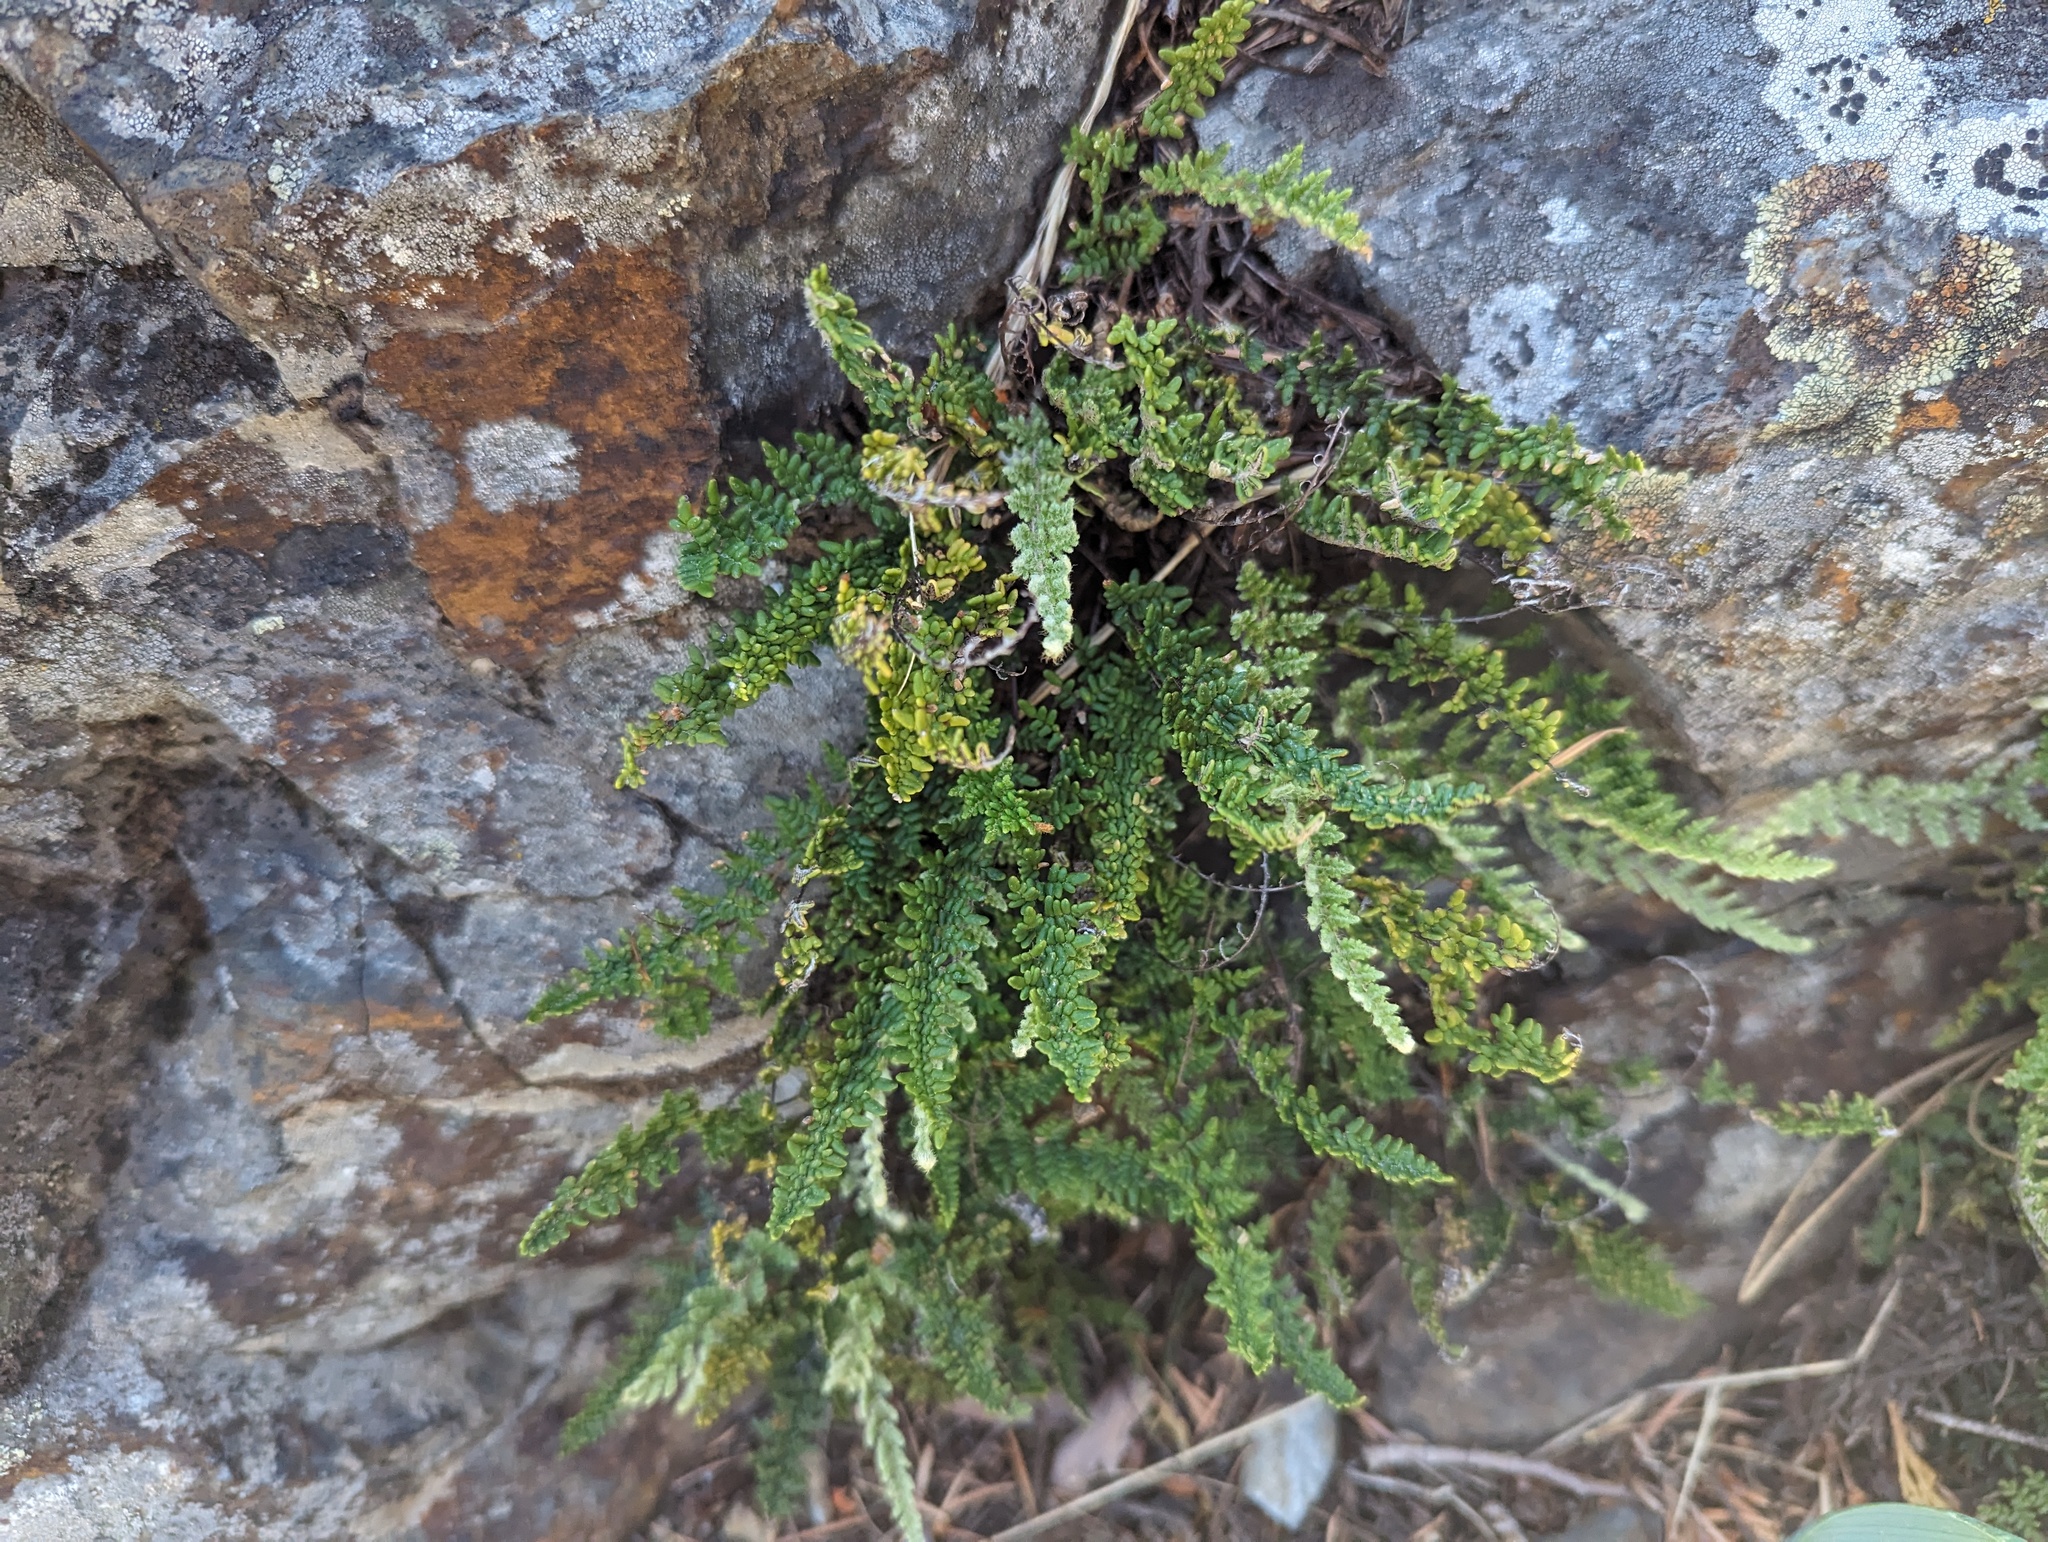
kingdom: Plantae
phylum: Tracheophyta
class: Polypodiopsida
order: Polypodiales
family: Pteridaceae
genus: Myriopteris
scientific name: Myriopteris gracillima
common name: Lace fern
